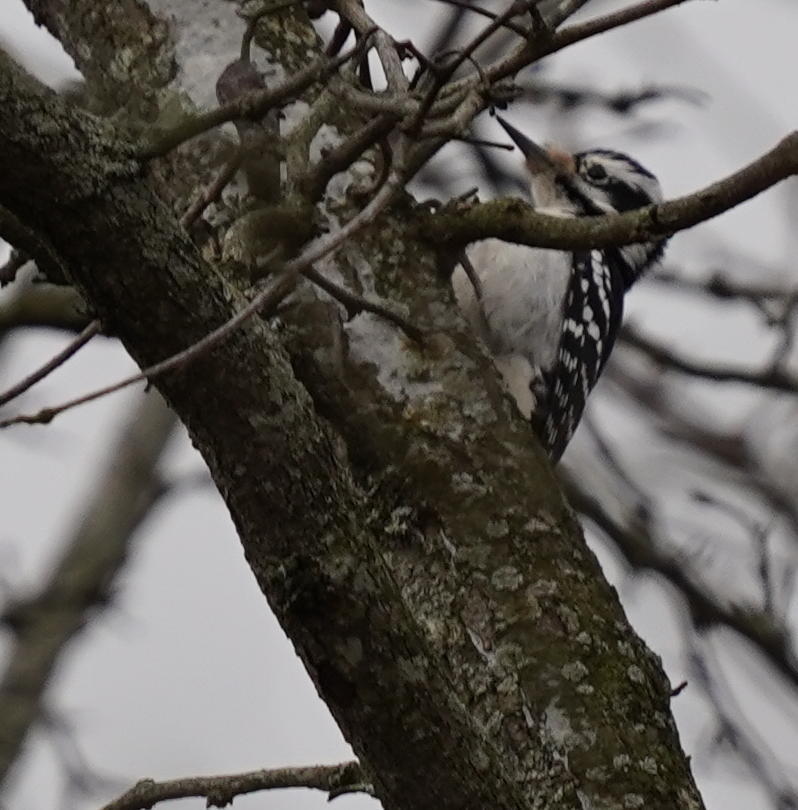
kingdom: Animalia
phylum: Chordata
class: Aves
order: Piciformes
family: Picidae
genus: Leuconotopicus
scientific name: Leuconotopicus villosus
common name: Hairy woodpecker
